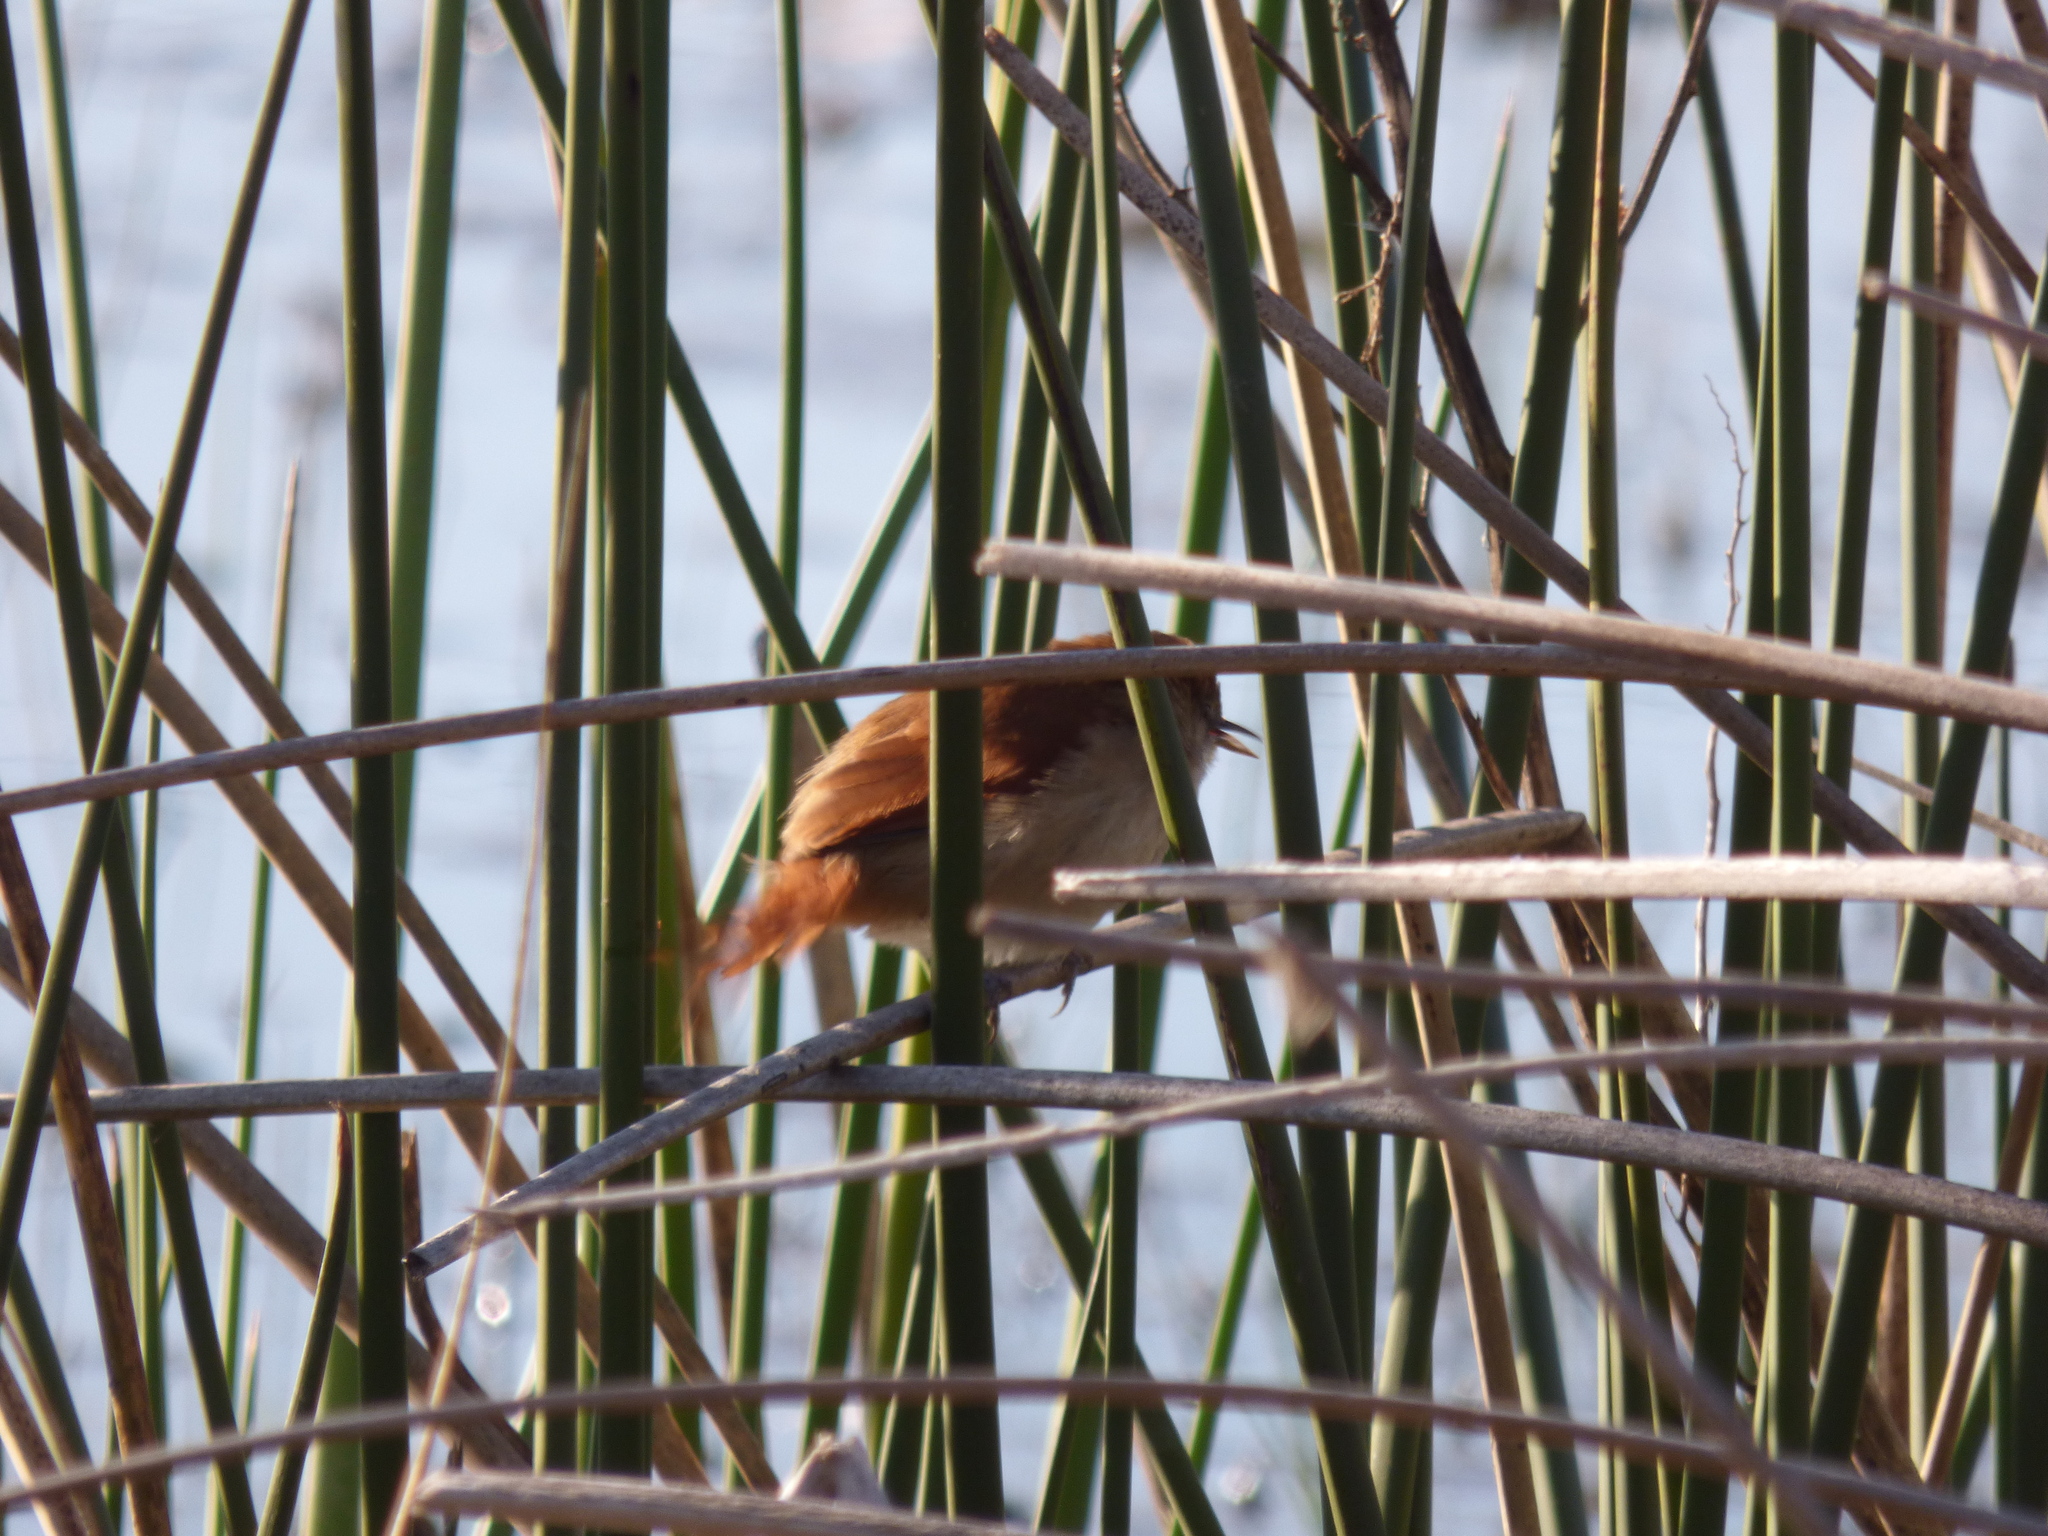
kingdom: Animalia
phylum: Chordata
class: Aves
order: Passeriformes
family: Furnariidae
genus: Certhiaxis
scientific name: Certhiaxis cinnamomeus
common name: Yellow-chinned spinetail
